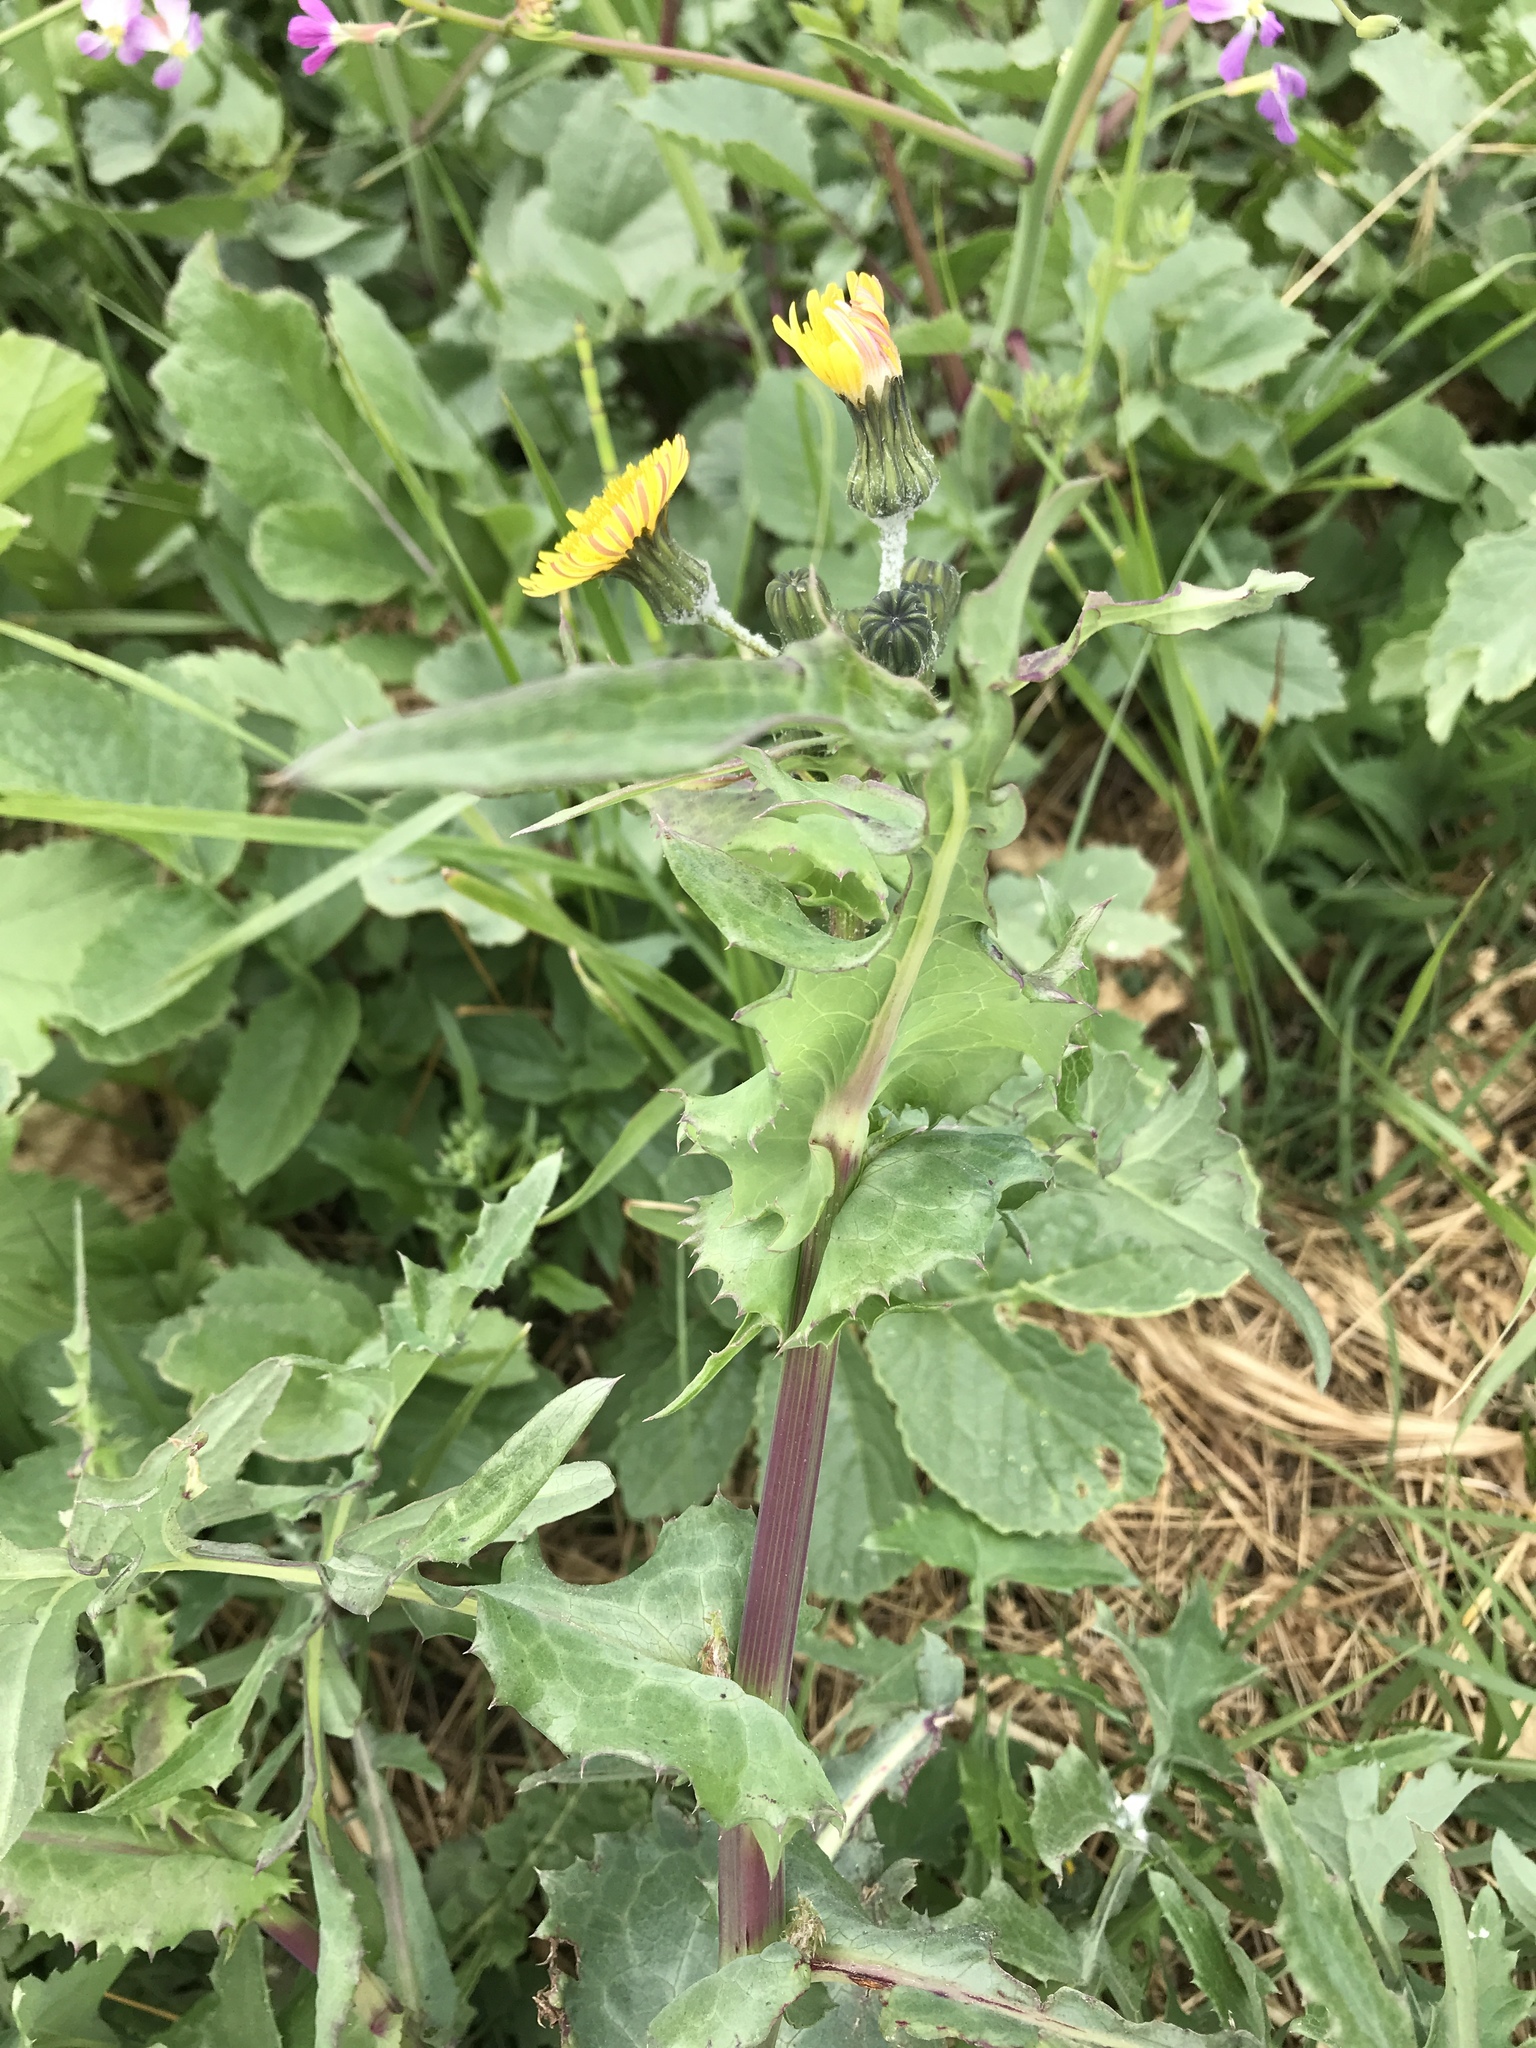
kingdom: Plantae
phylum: Tracheophyta
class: Magnoliopsida
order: Asterales
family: Asteraceae
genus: Sonchus
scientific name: Sonchus asper
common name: Prickly sow-thistle
